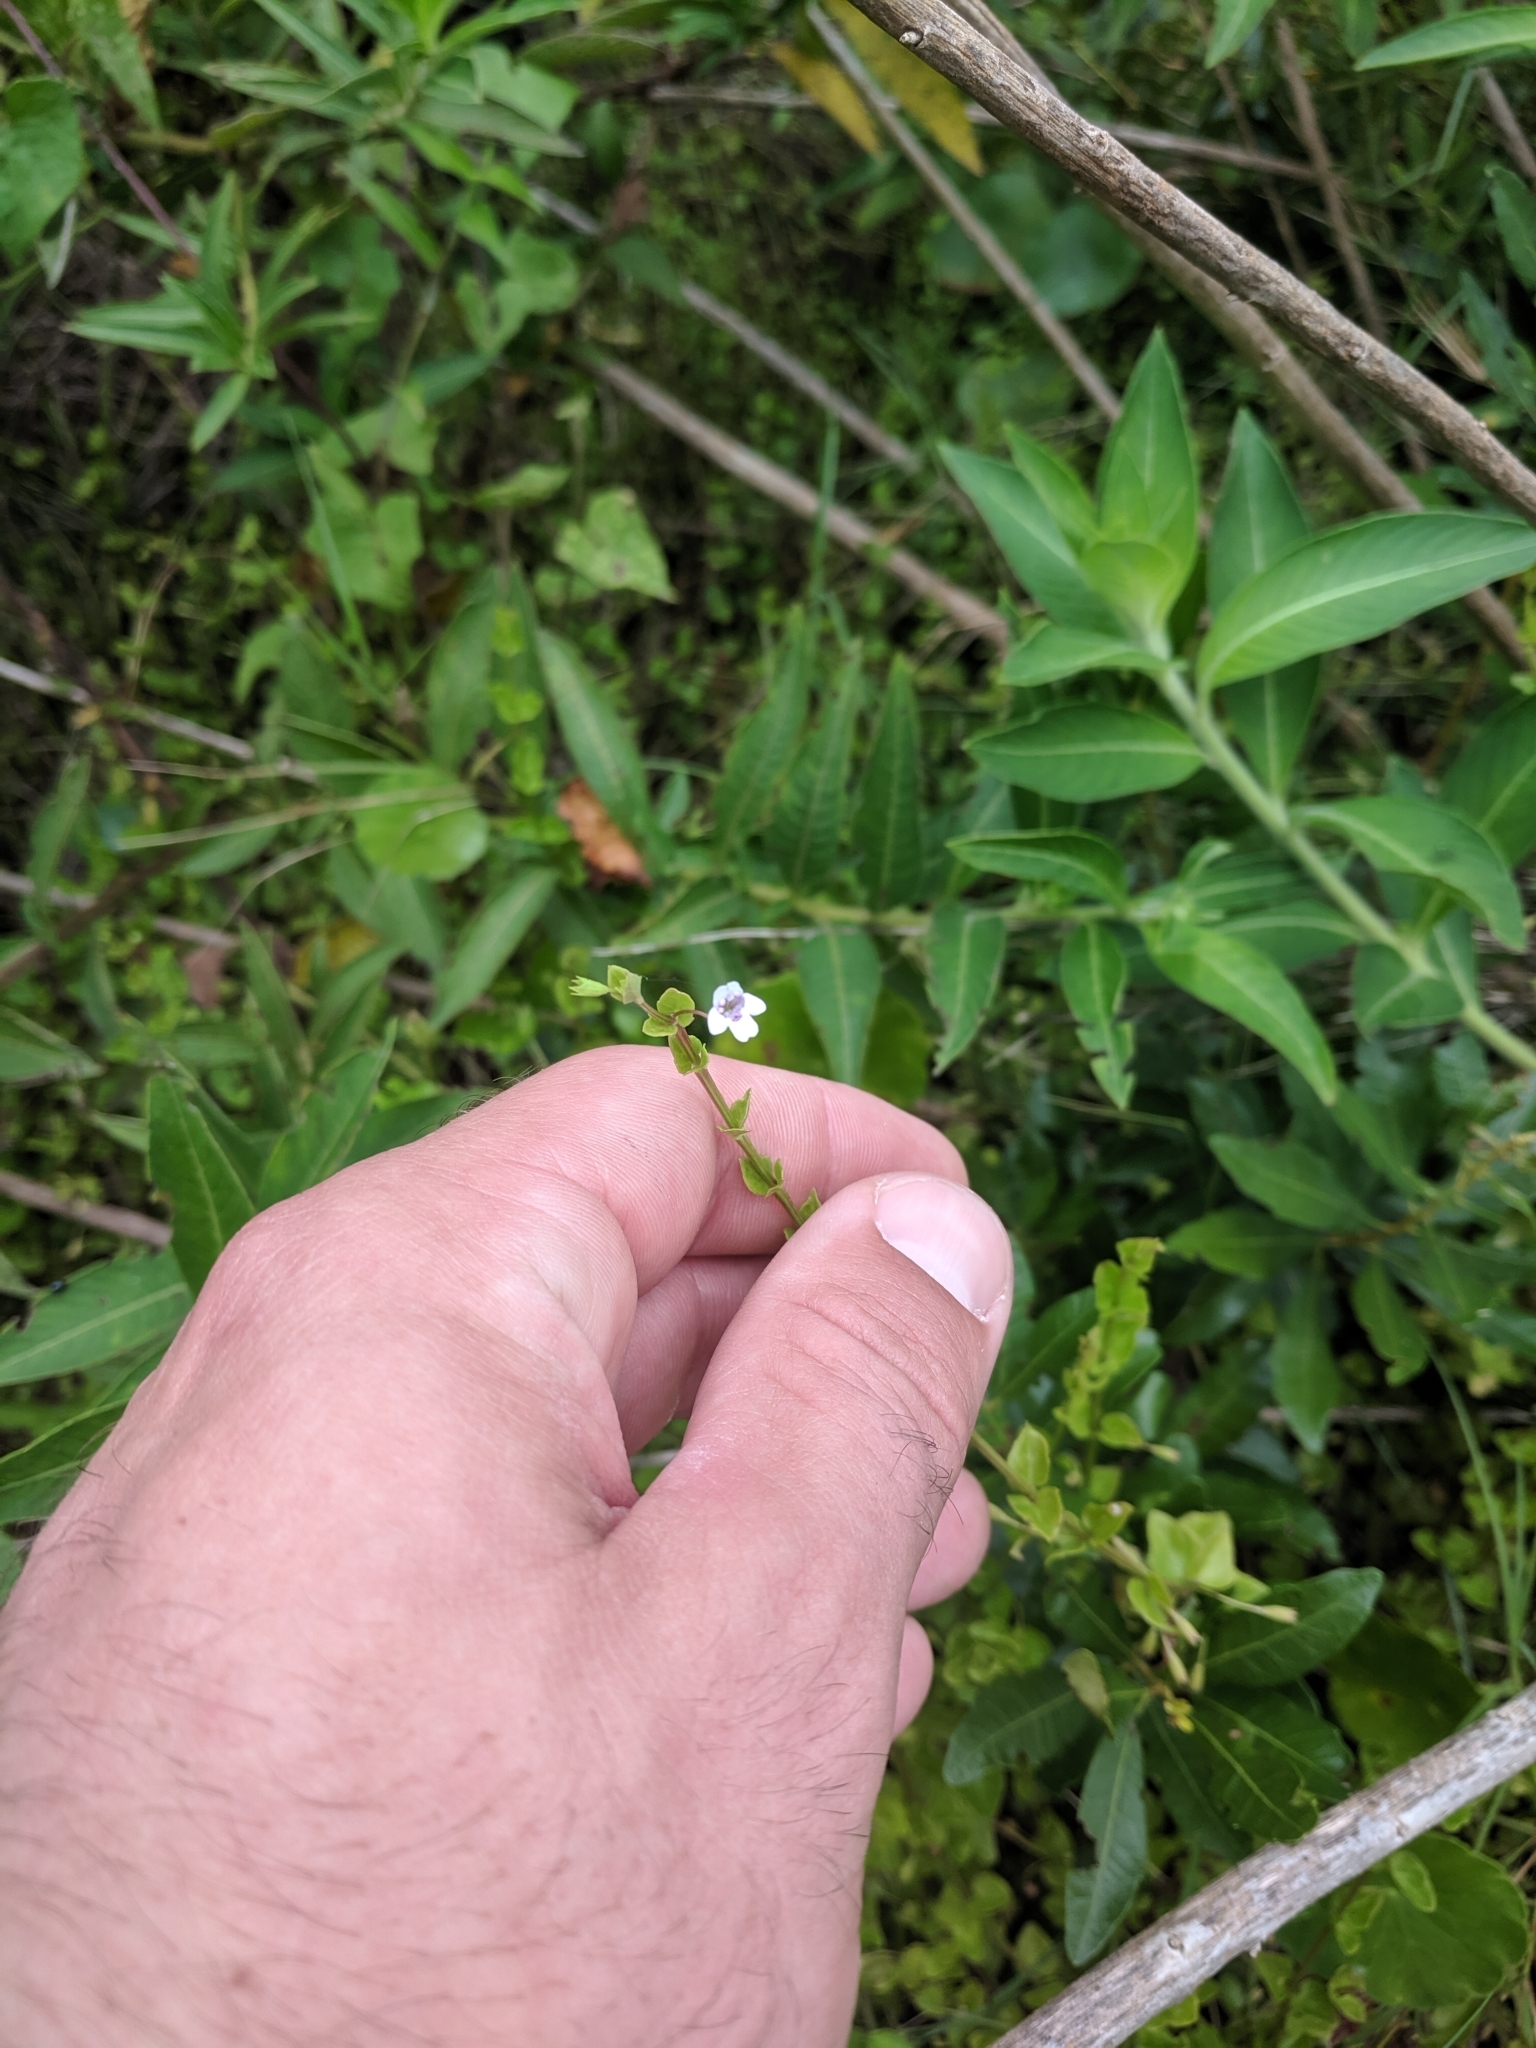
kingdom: Plantae
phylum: Tracheophyta
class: Magnoliopsida
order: Lamiales
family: Lamiaceae
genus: Clinopodium
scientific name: Clinopodium brownei
